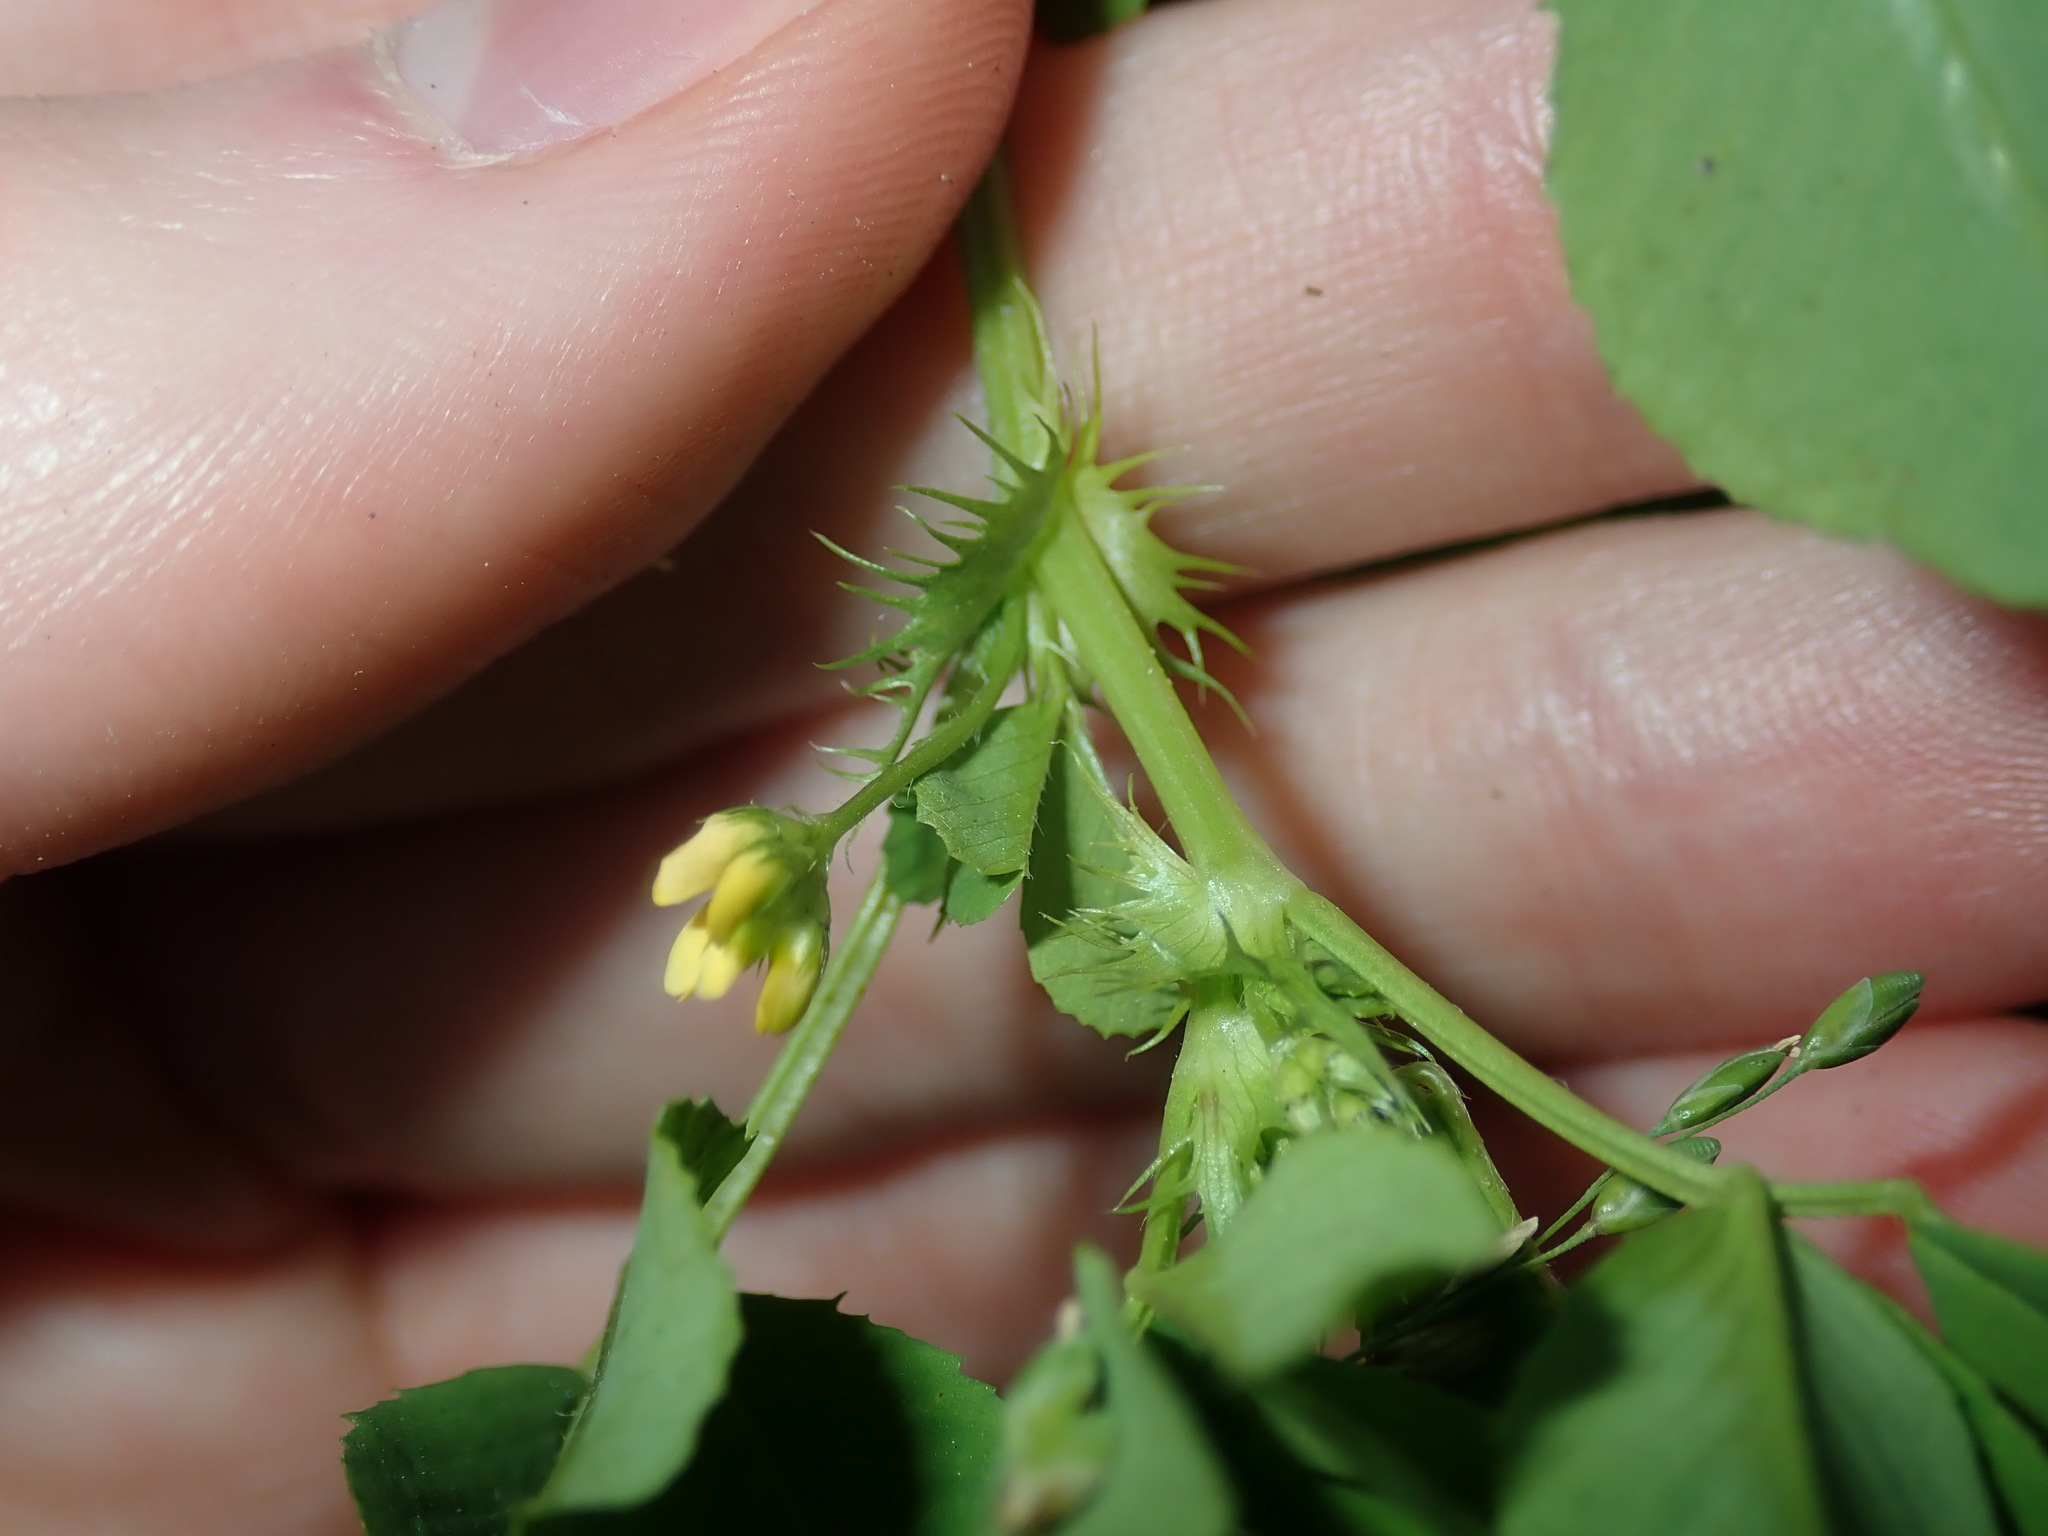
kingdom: Plantae
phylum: Tracheophyta
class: Magnoliopsida
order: Fabales
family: Fabaceae
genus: Medicago
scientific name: Medicago polymorpha
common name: Burclover
